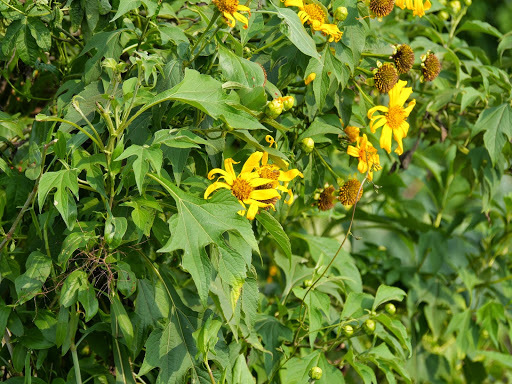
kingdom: Plantae
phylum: Tracheophyta
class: Magnoliopsida
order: Asterales
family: Asteraceae
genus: Tithonia
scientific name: Tithonia diversifolia
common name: Tree marigold
